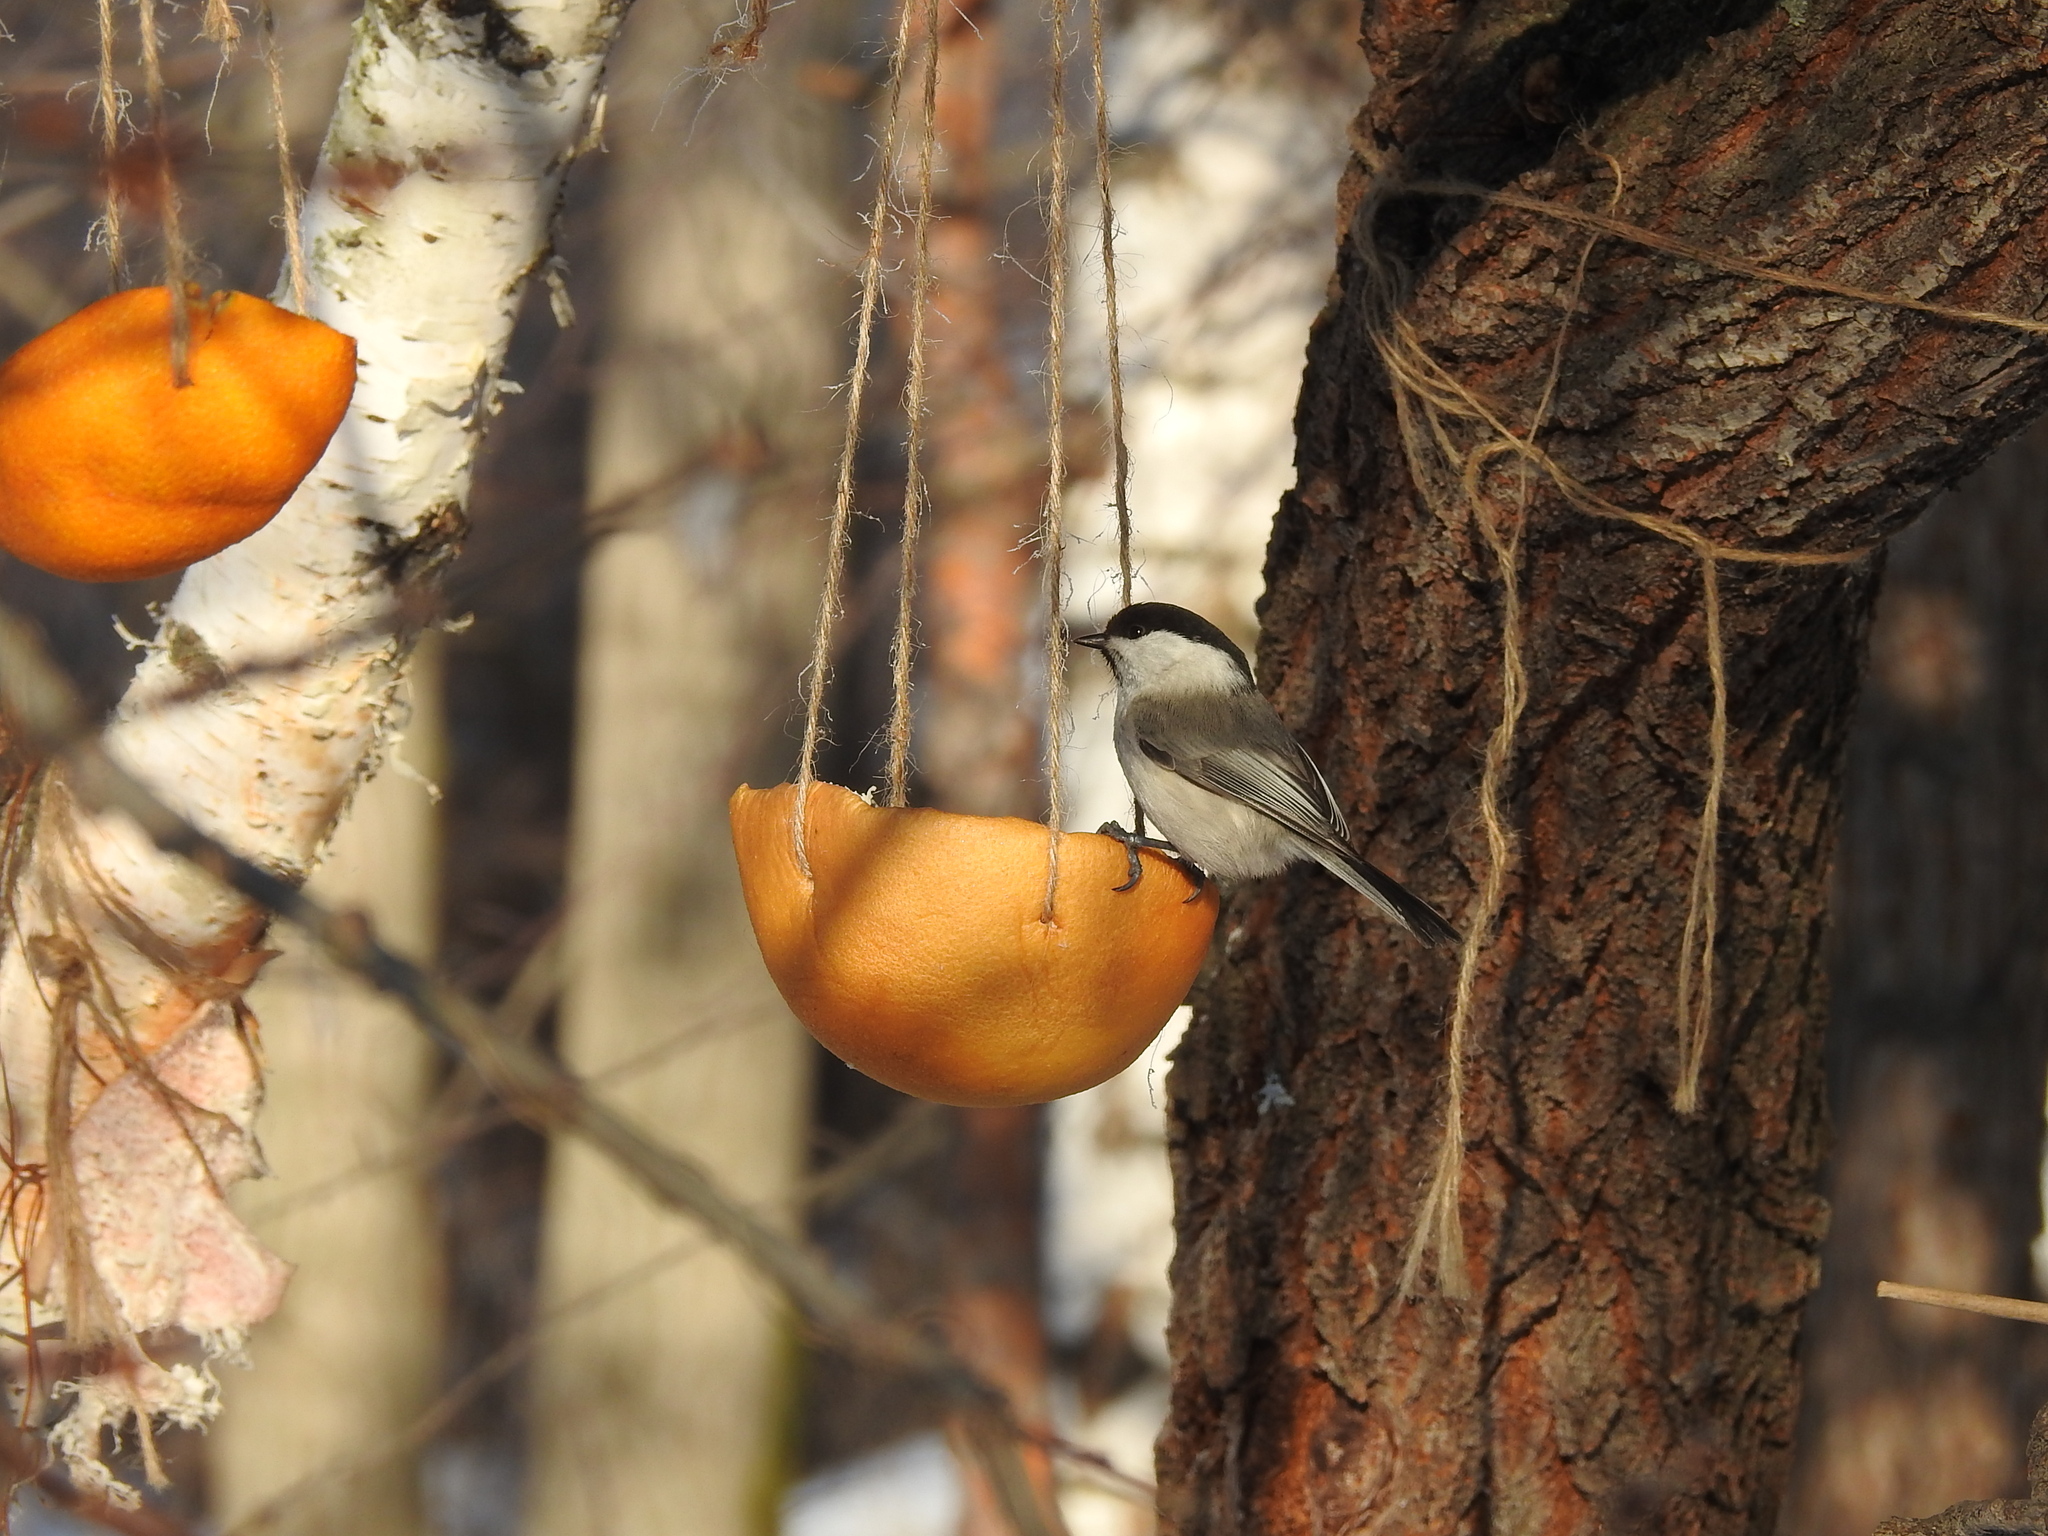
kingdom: Animalia
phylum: Chordata
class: Aves
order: Passeriformes
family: Paridae
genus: Poecile
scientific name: Poecile montanus
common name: Willow tit
